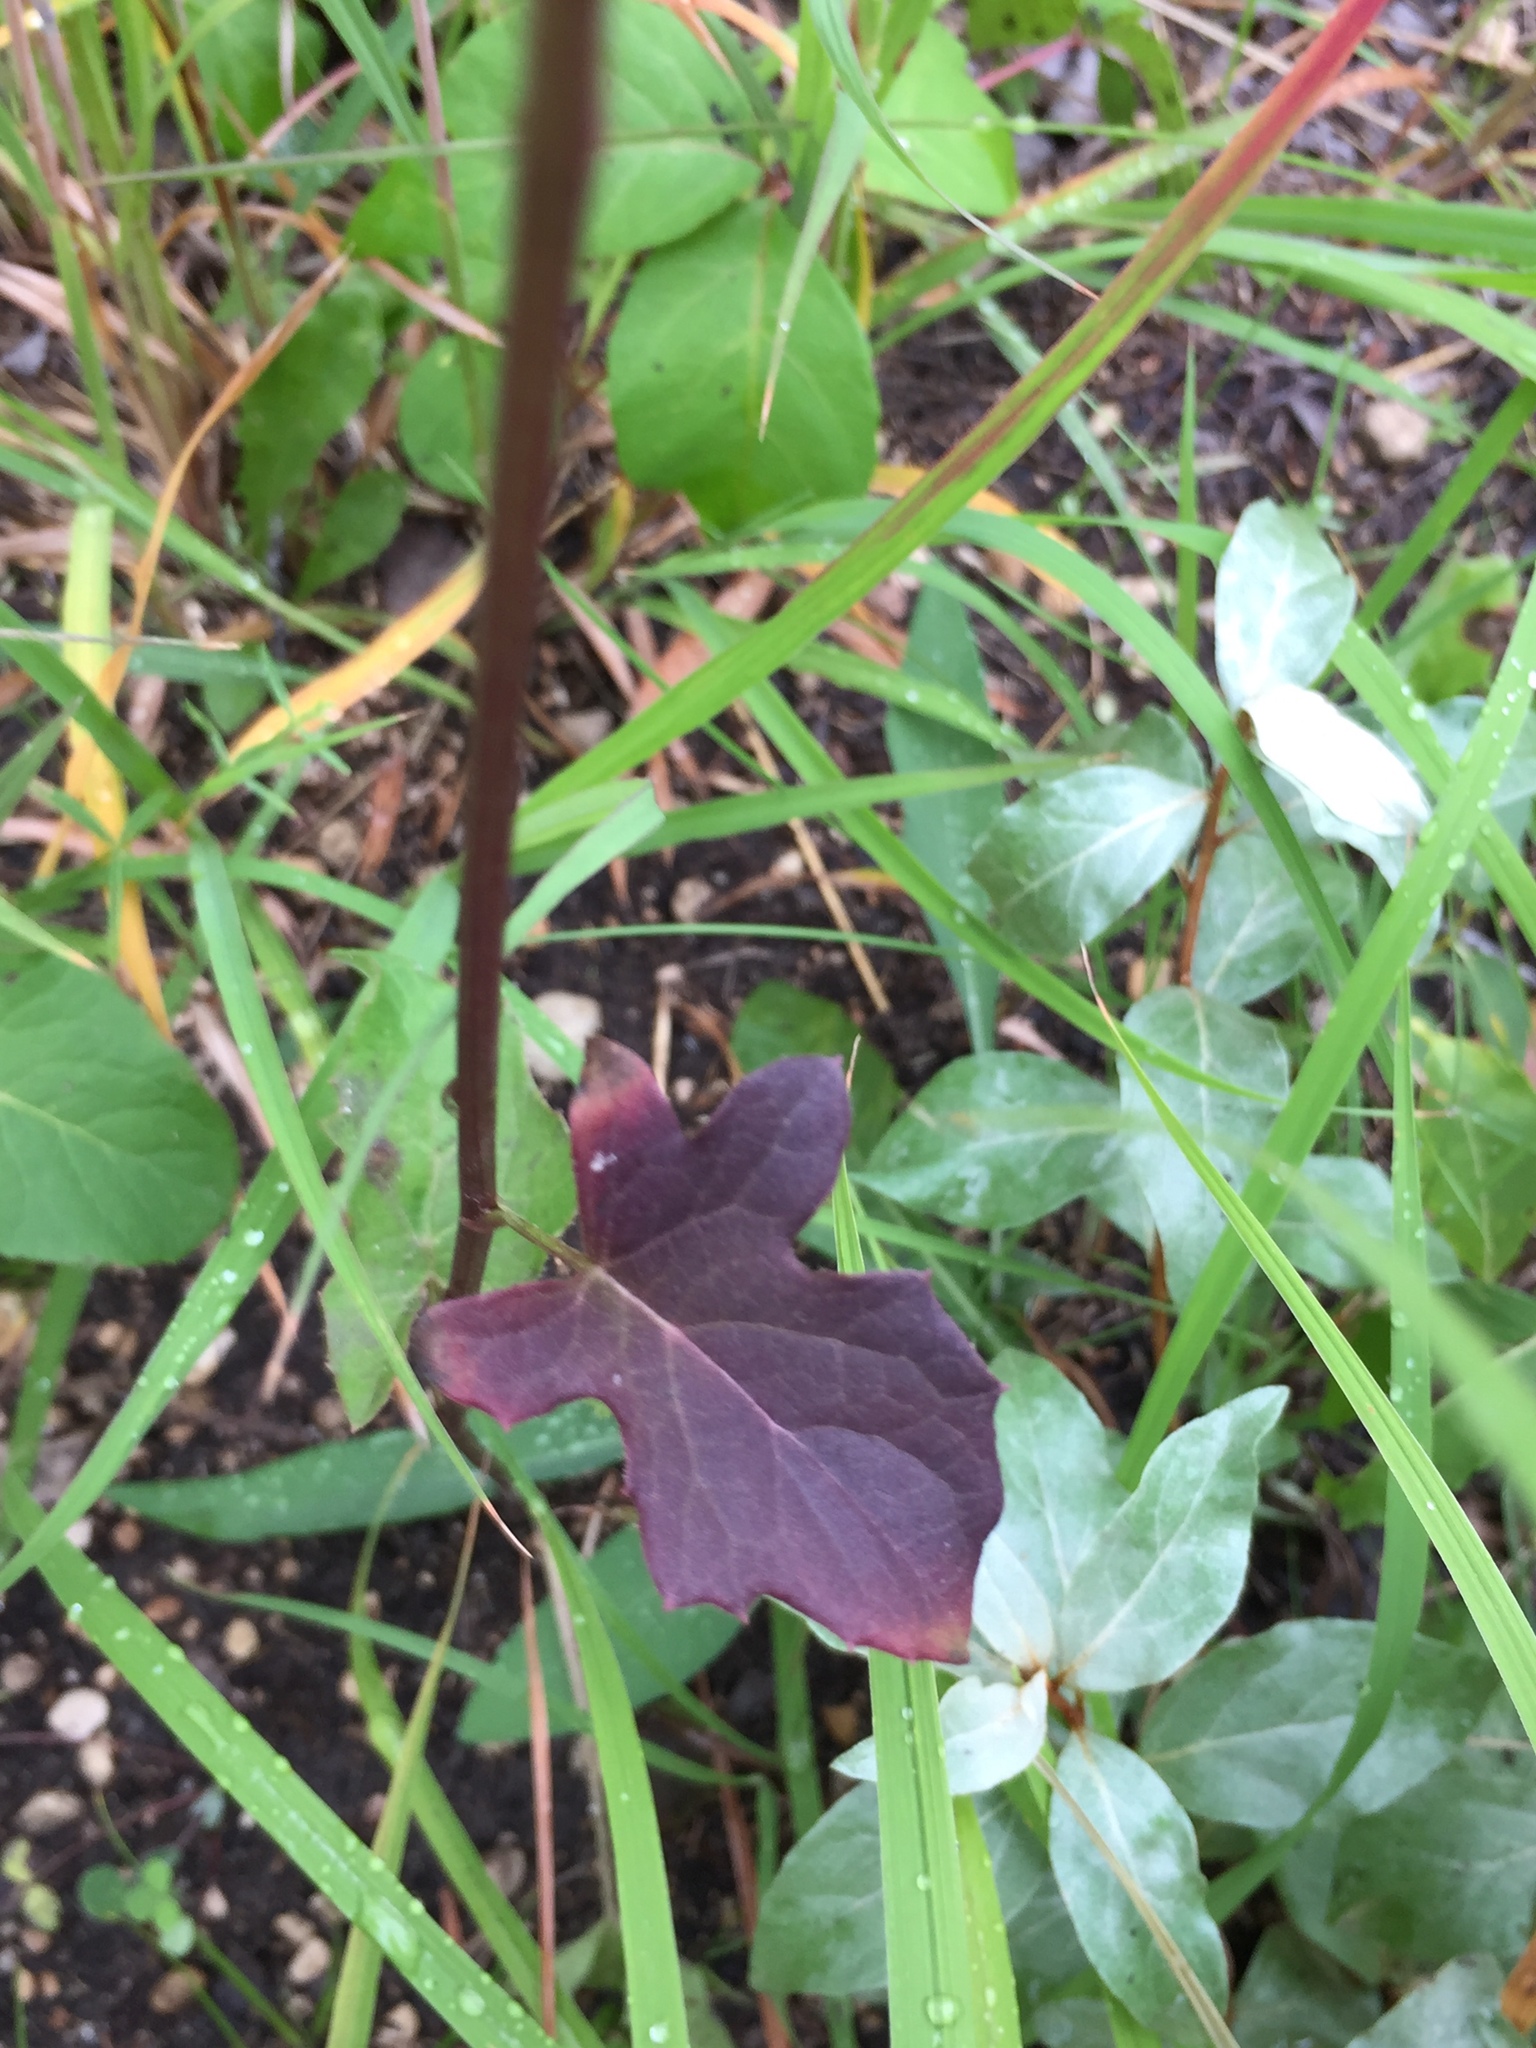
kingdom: Plantae
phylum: Tracheophyta
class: Magnoliopsida
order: Asterales
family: Asteraceae
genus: Nabalus
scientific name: Nabalus albus
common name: White rattlesnakeroot
